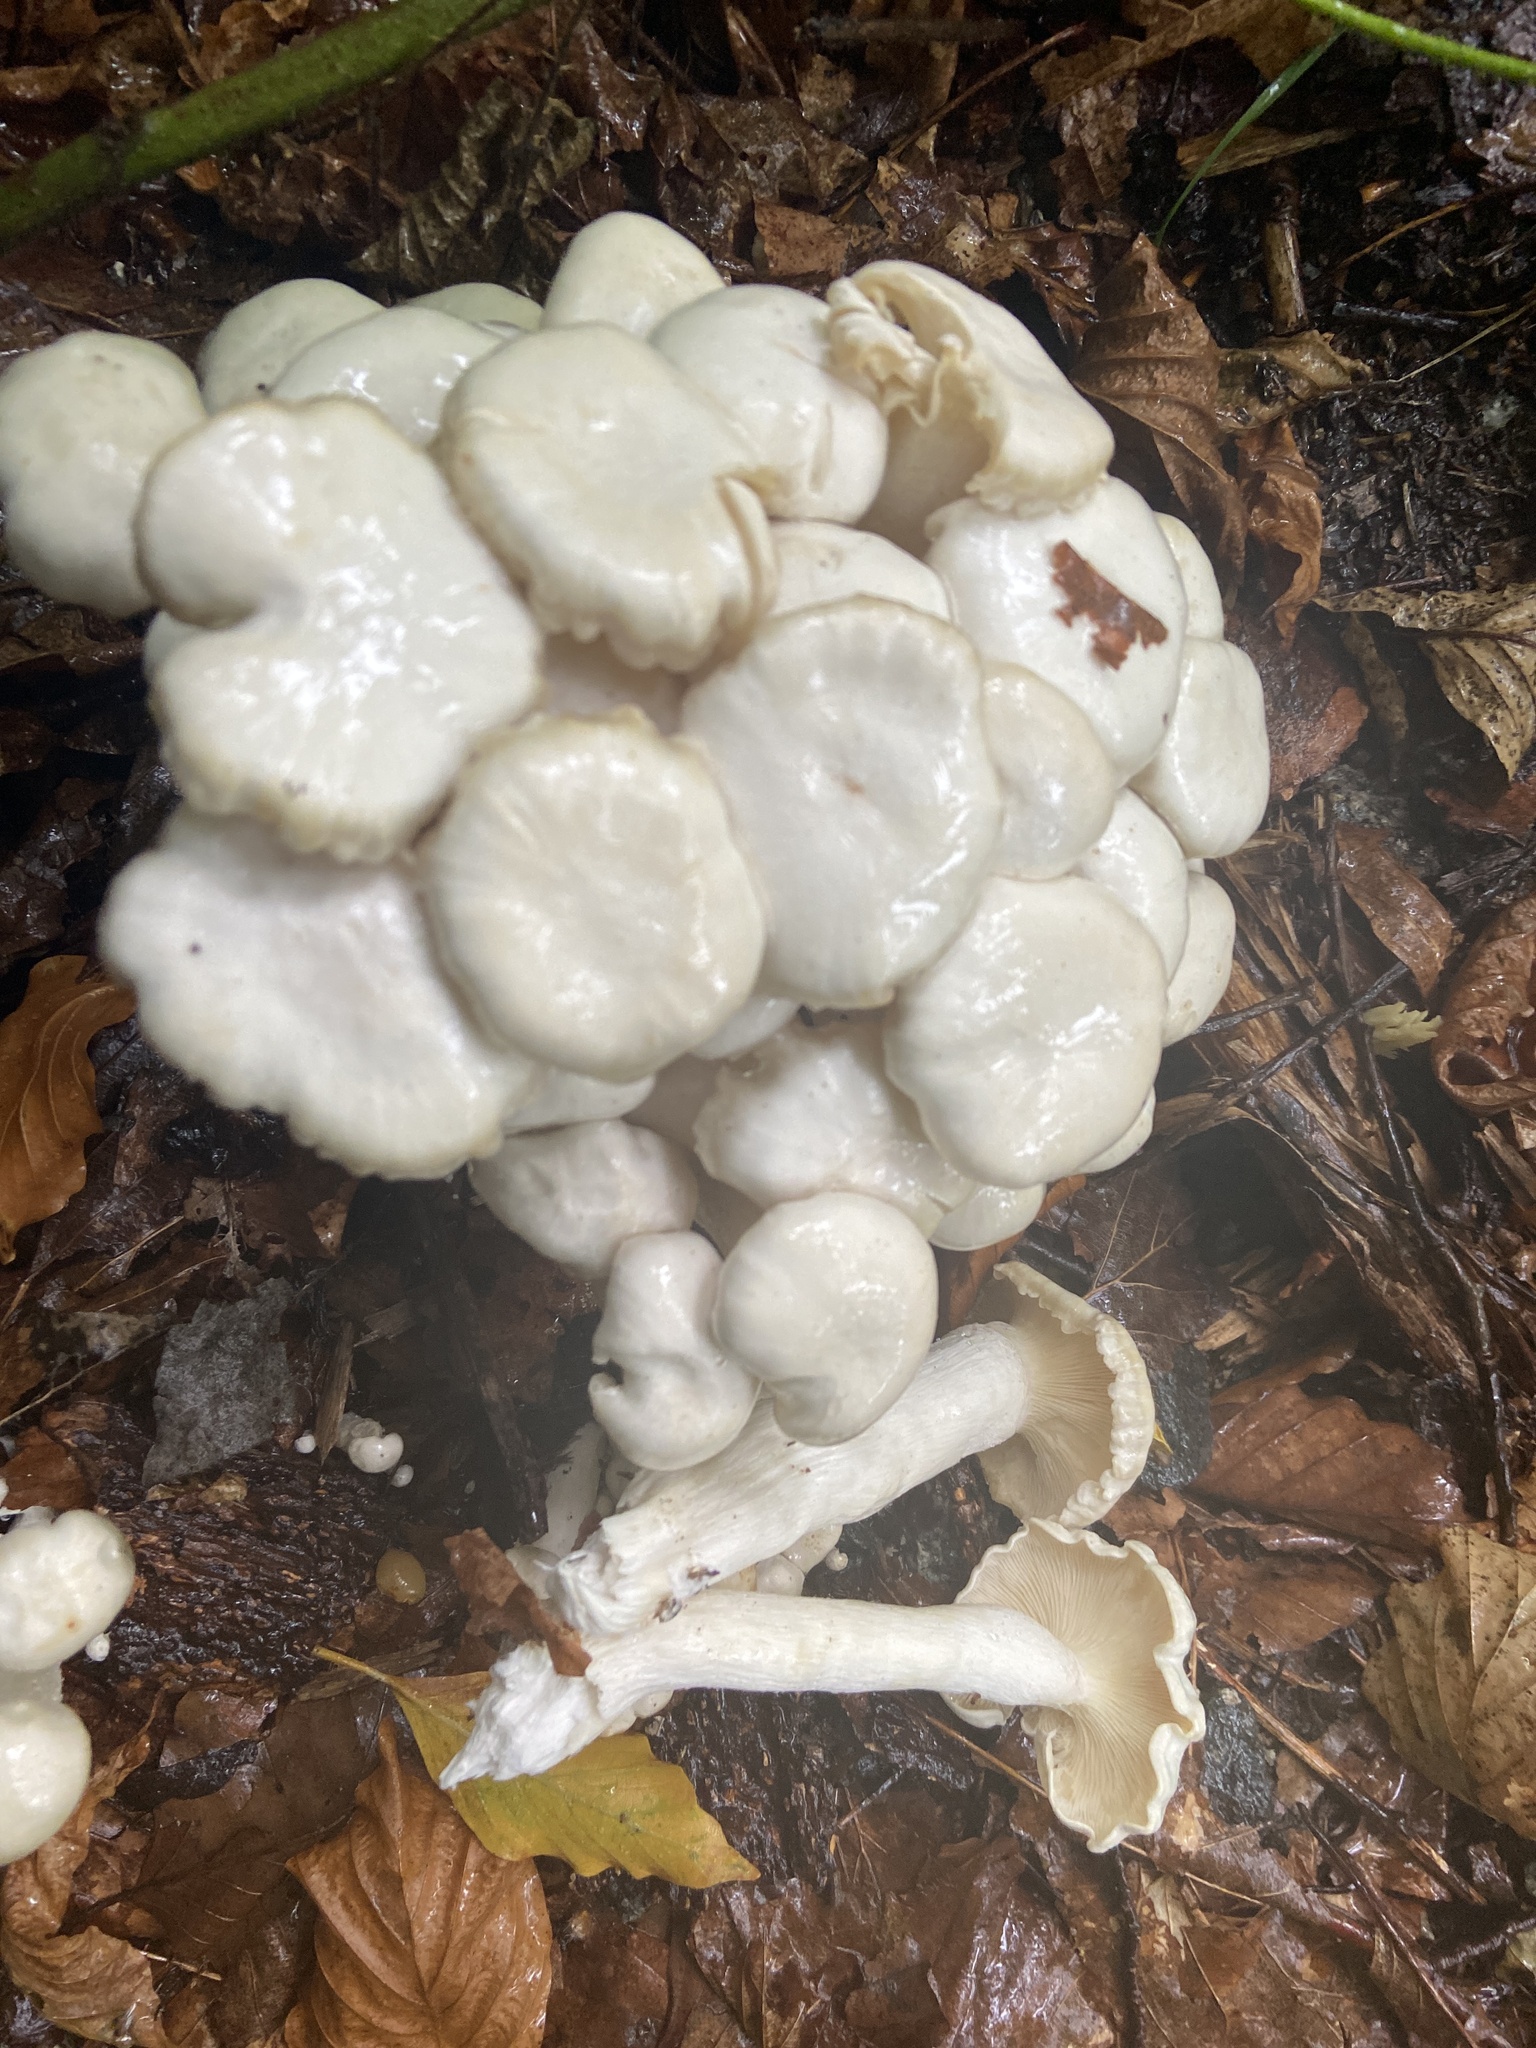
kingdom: Fungi
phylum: Basidiomycota
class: Agaricomycetes
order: Agaricales
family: Tricholomataceae
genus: Leucocybe
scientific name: Leucocybe connata
